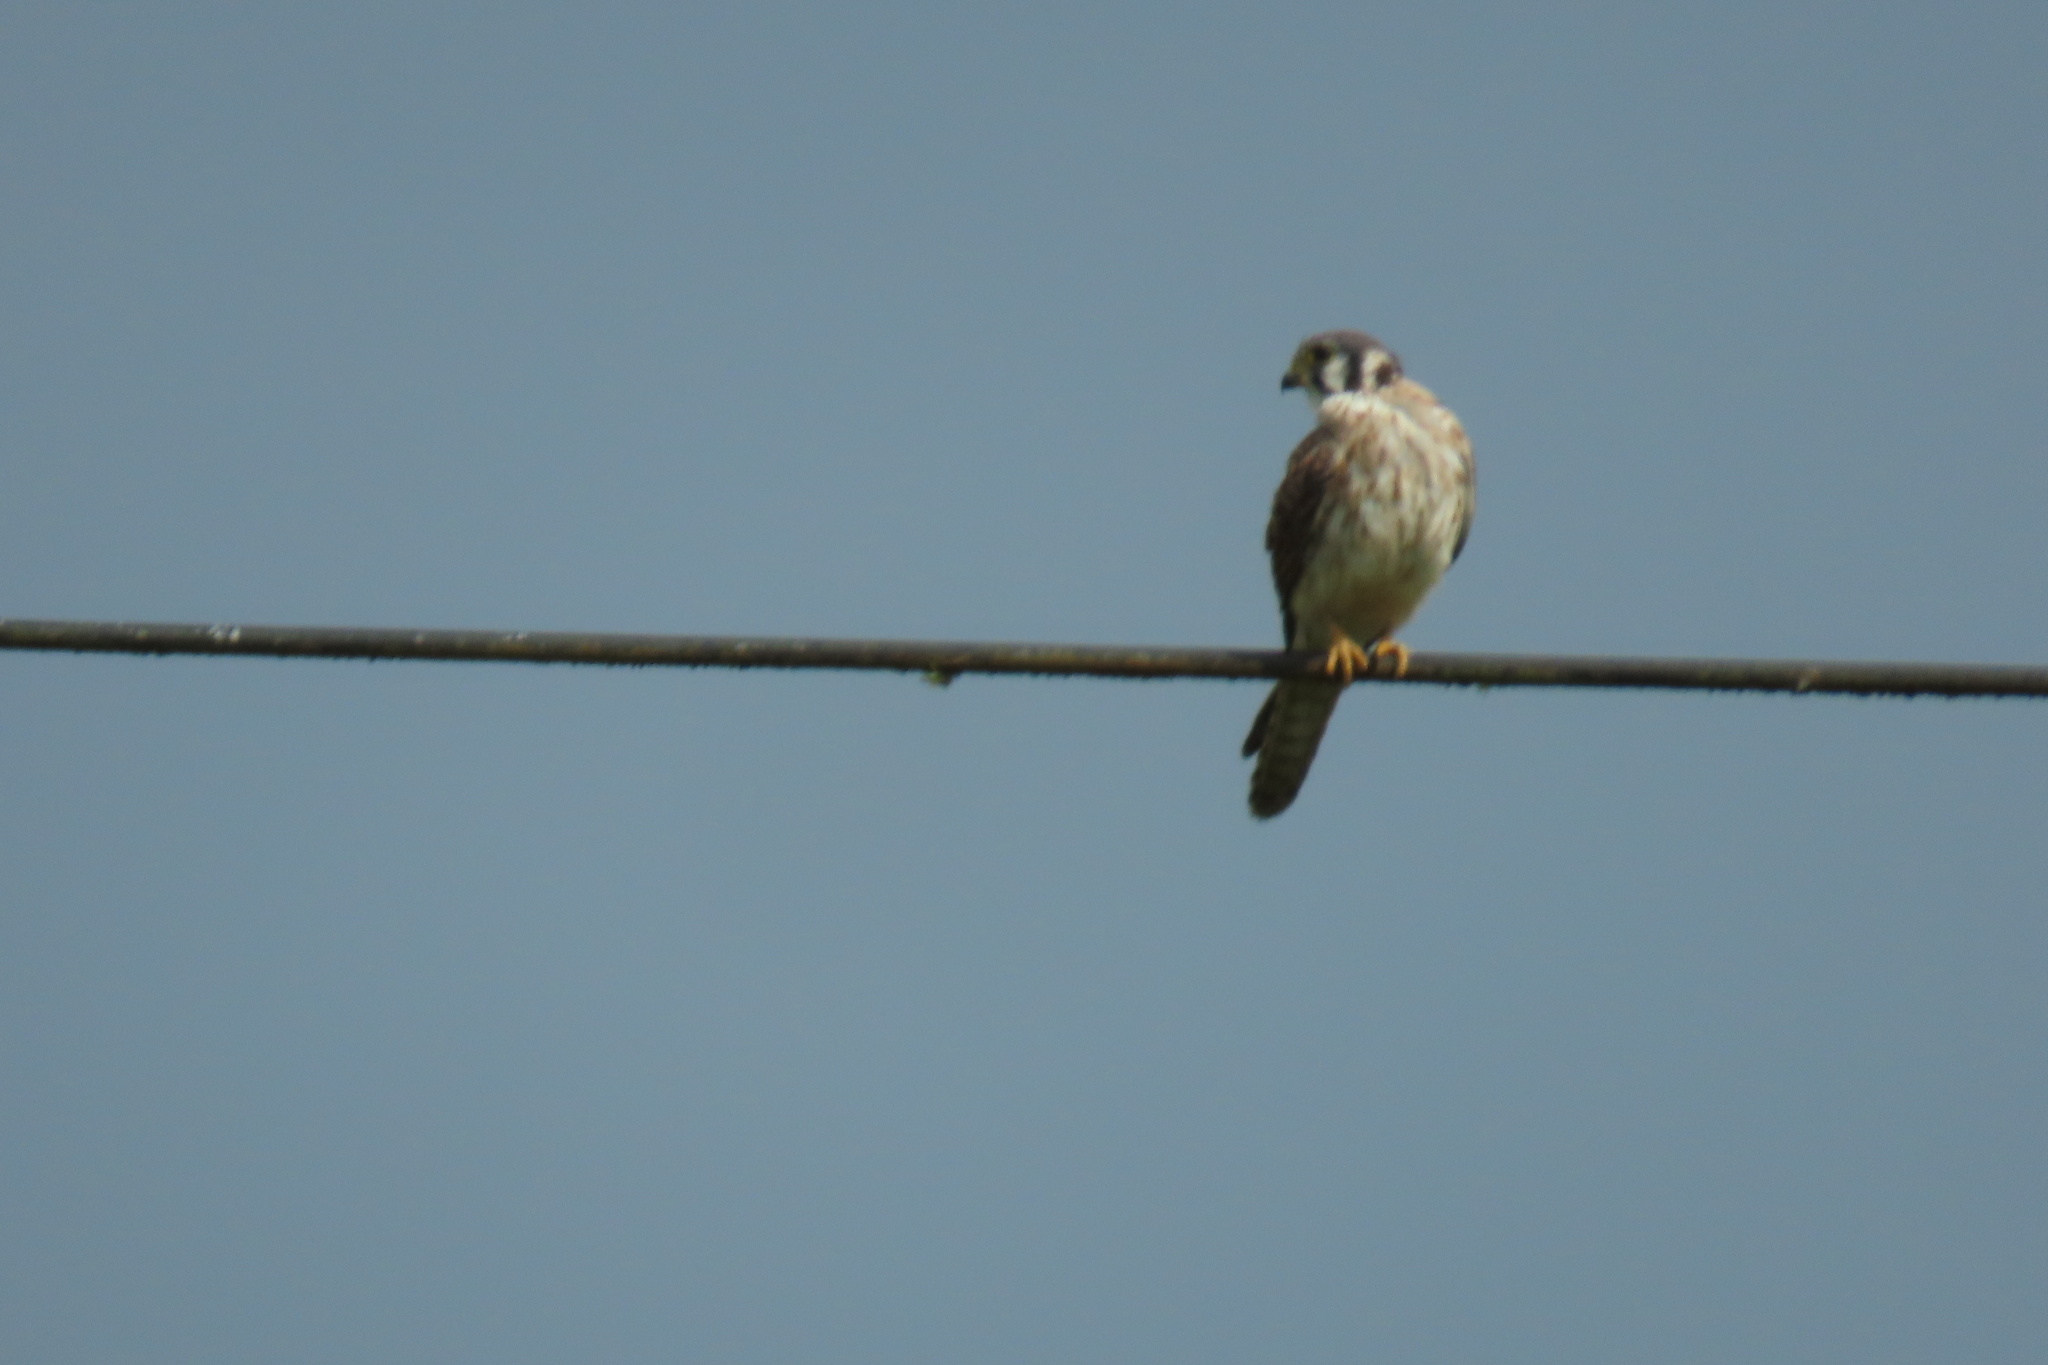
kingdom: Animalia
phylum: Chordata
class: Aves
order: Falconiformes
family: Falconidae
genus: Falco
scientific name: Falco sparverius
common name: American kestrel
